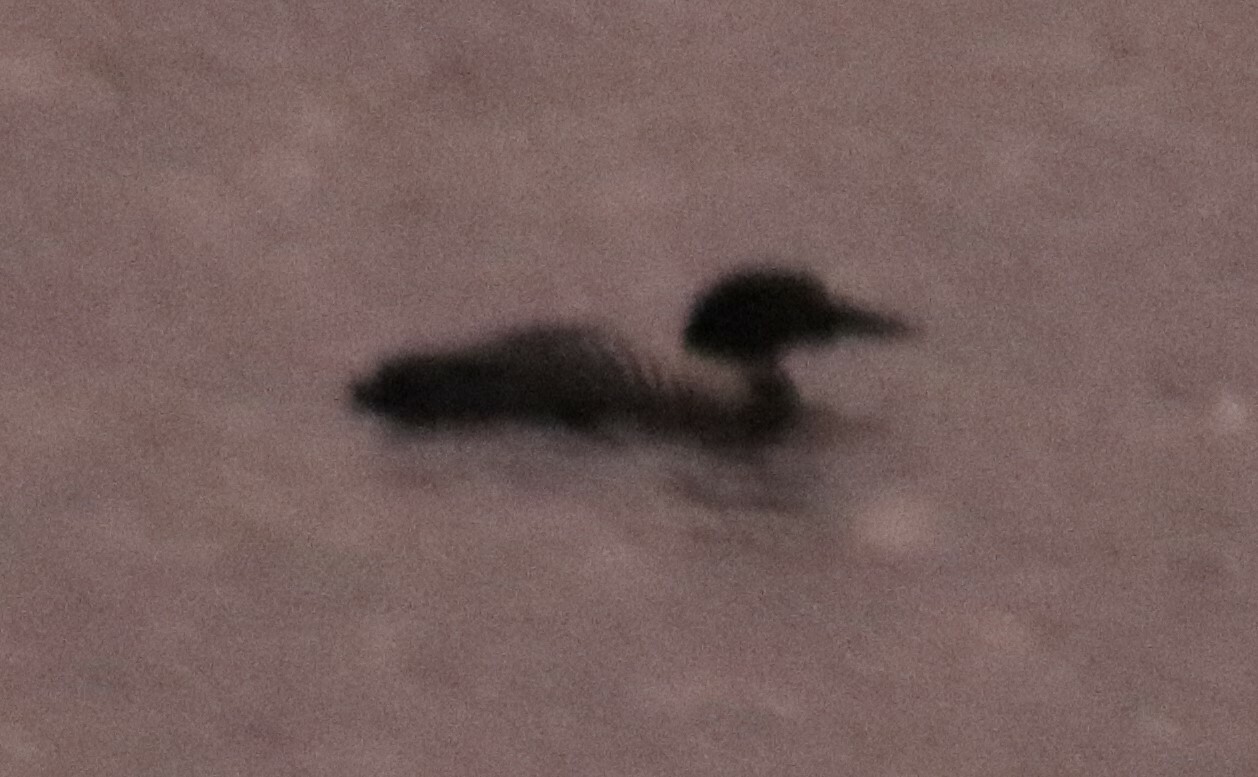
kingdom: Animalia
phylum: Chordata
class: Aves
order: Gaviiformes
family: Gaviidae
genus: Gavia
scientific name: Gavia immer
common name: Common loon
